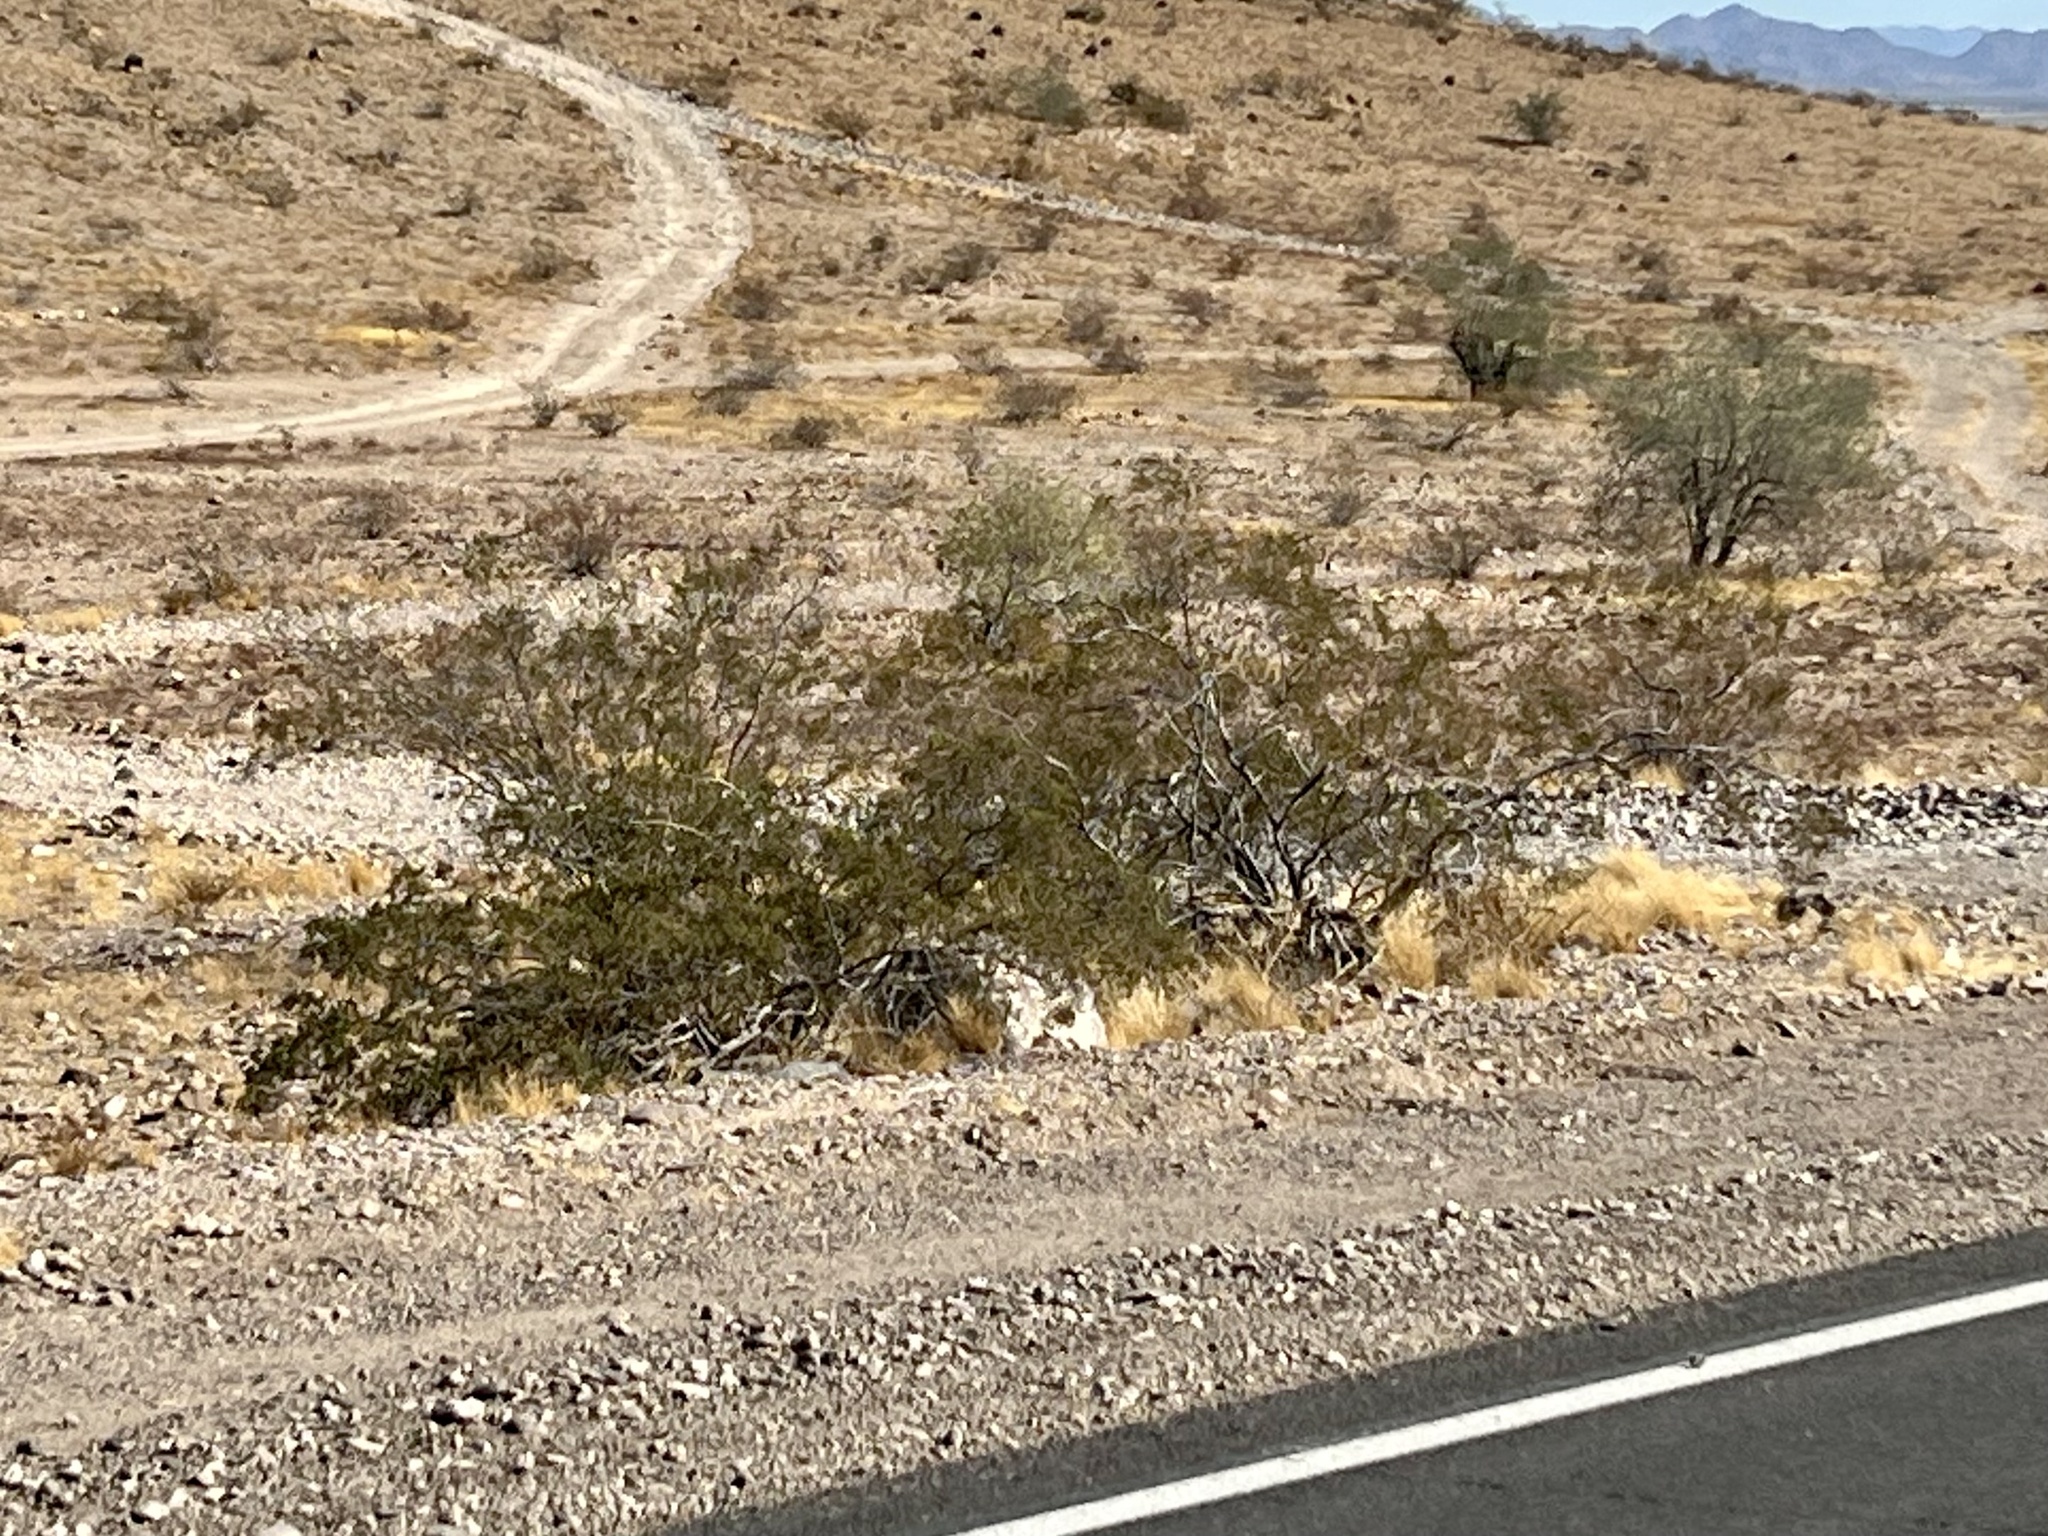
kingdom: Plantae
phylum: Tracheophyta
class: Magnoliopsida
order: Zygophyllales
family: Zygophyllaceae
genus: Larrea
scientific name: Larrea tridentata
